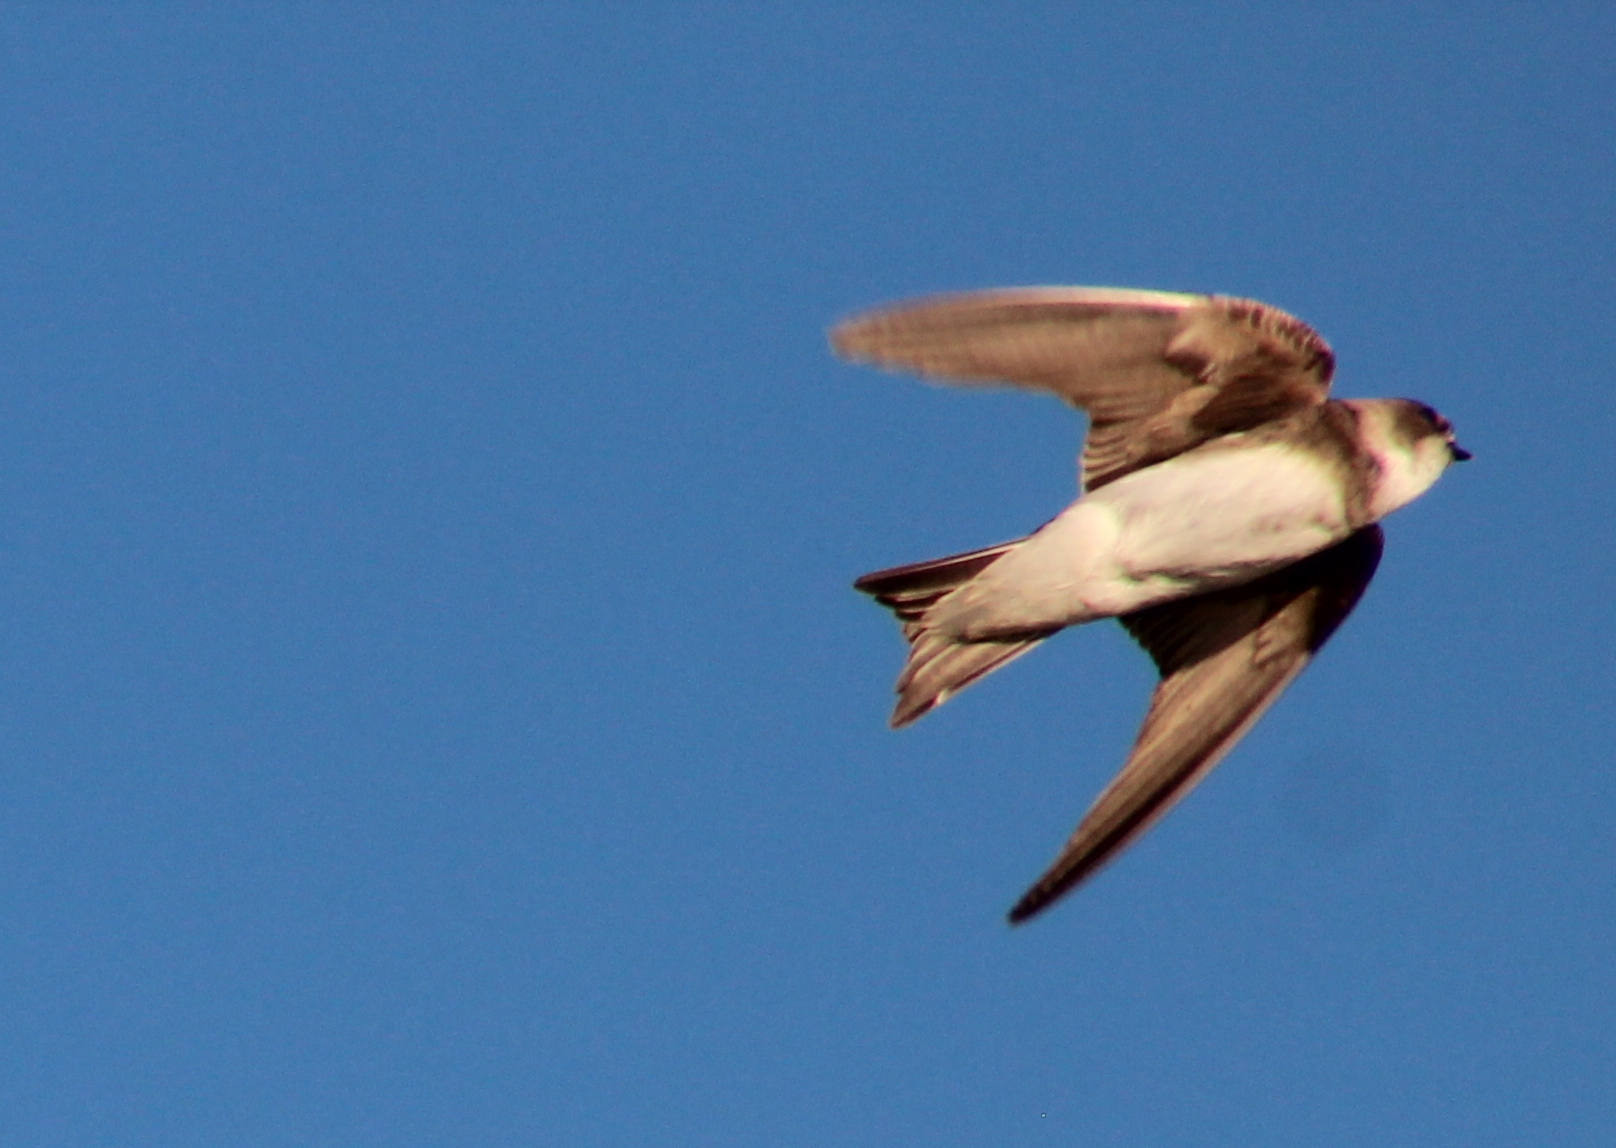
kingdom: Animalia
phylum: Chordata
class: Aves
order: Passeriformes
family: Hirundinidae
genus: Riparia
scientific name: Riparia riparia
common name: Sand martin
